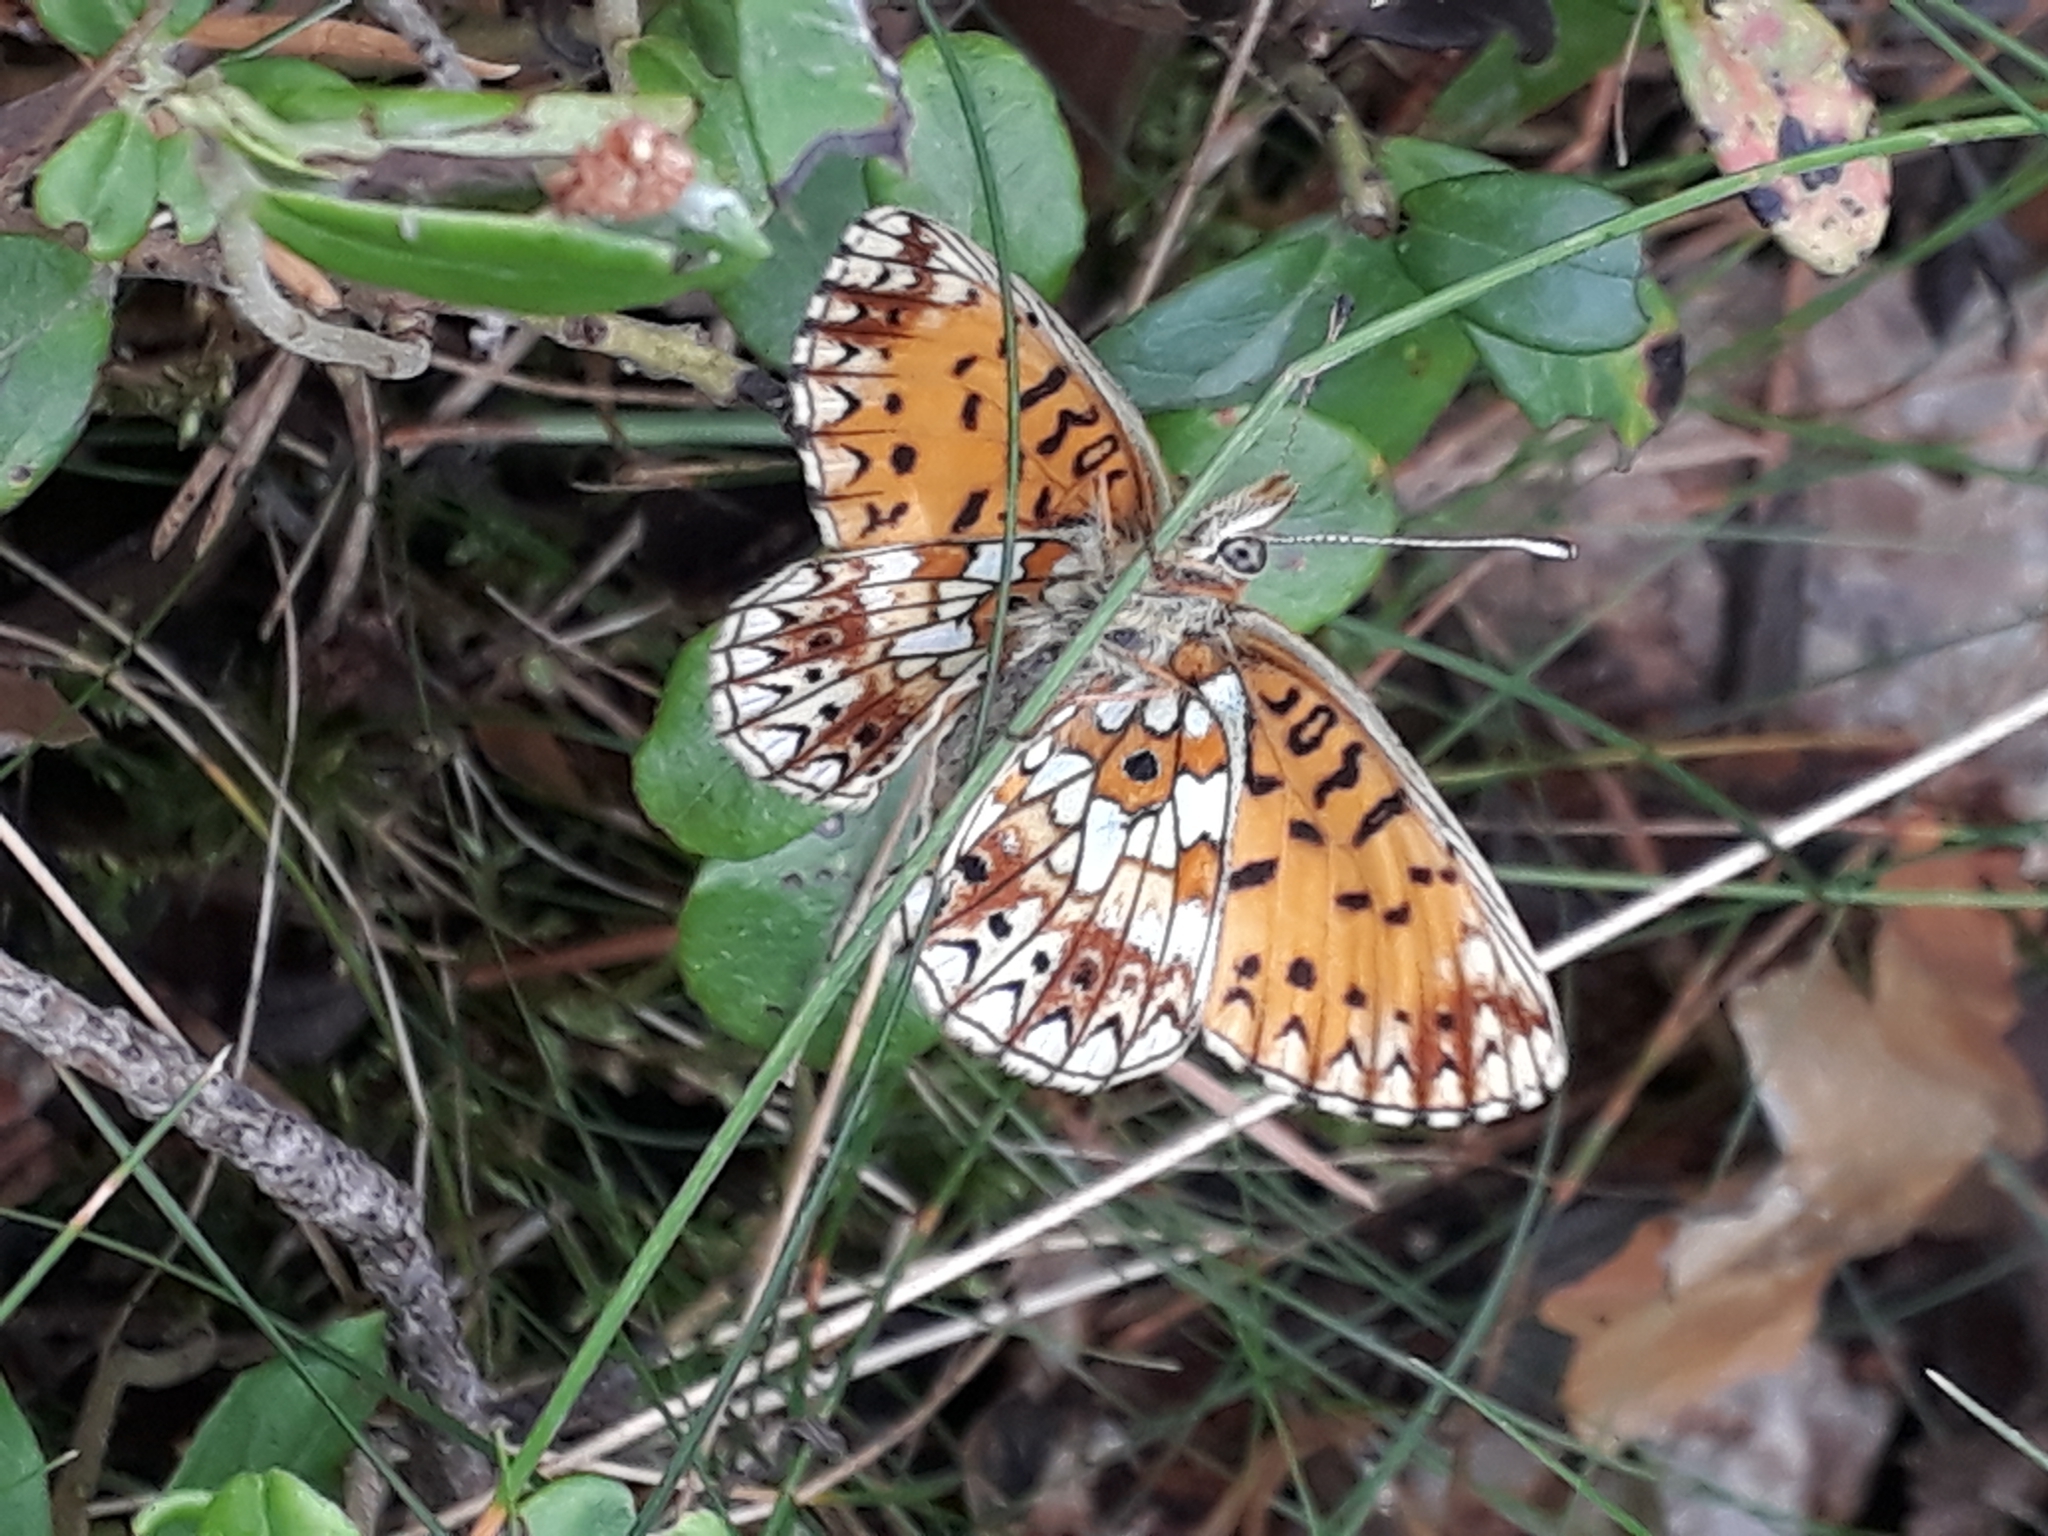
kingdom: Animalia
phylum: Arthropoda
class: Insecta
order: Lepidoptera
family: Nymphalidae
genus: Boloria
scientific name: Boloria selene
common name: Small pearl-bordered fritillary
